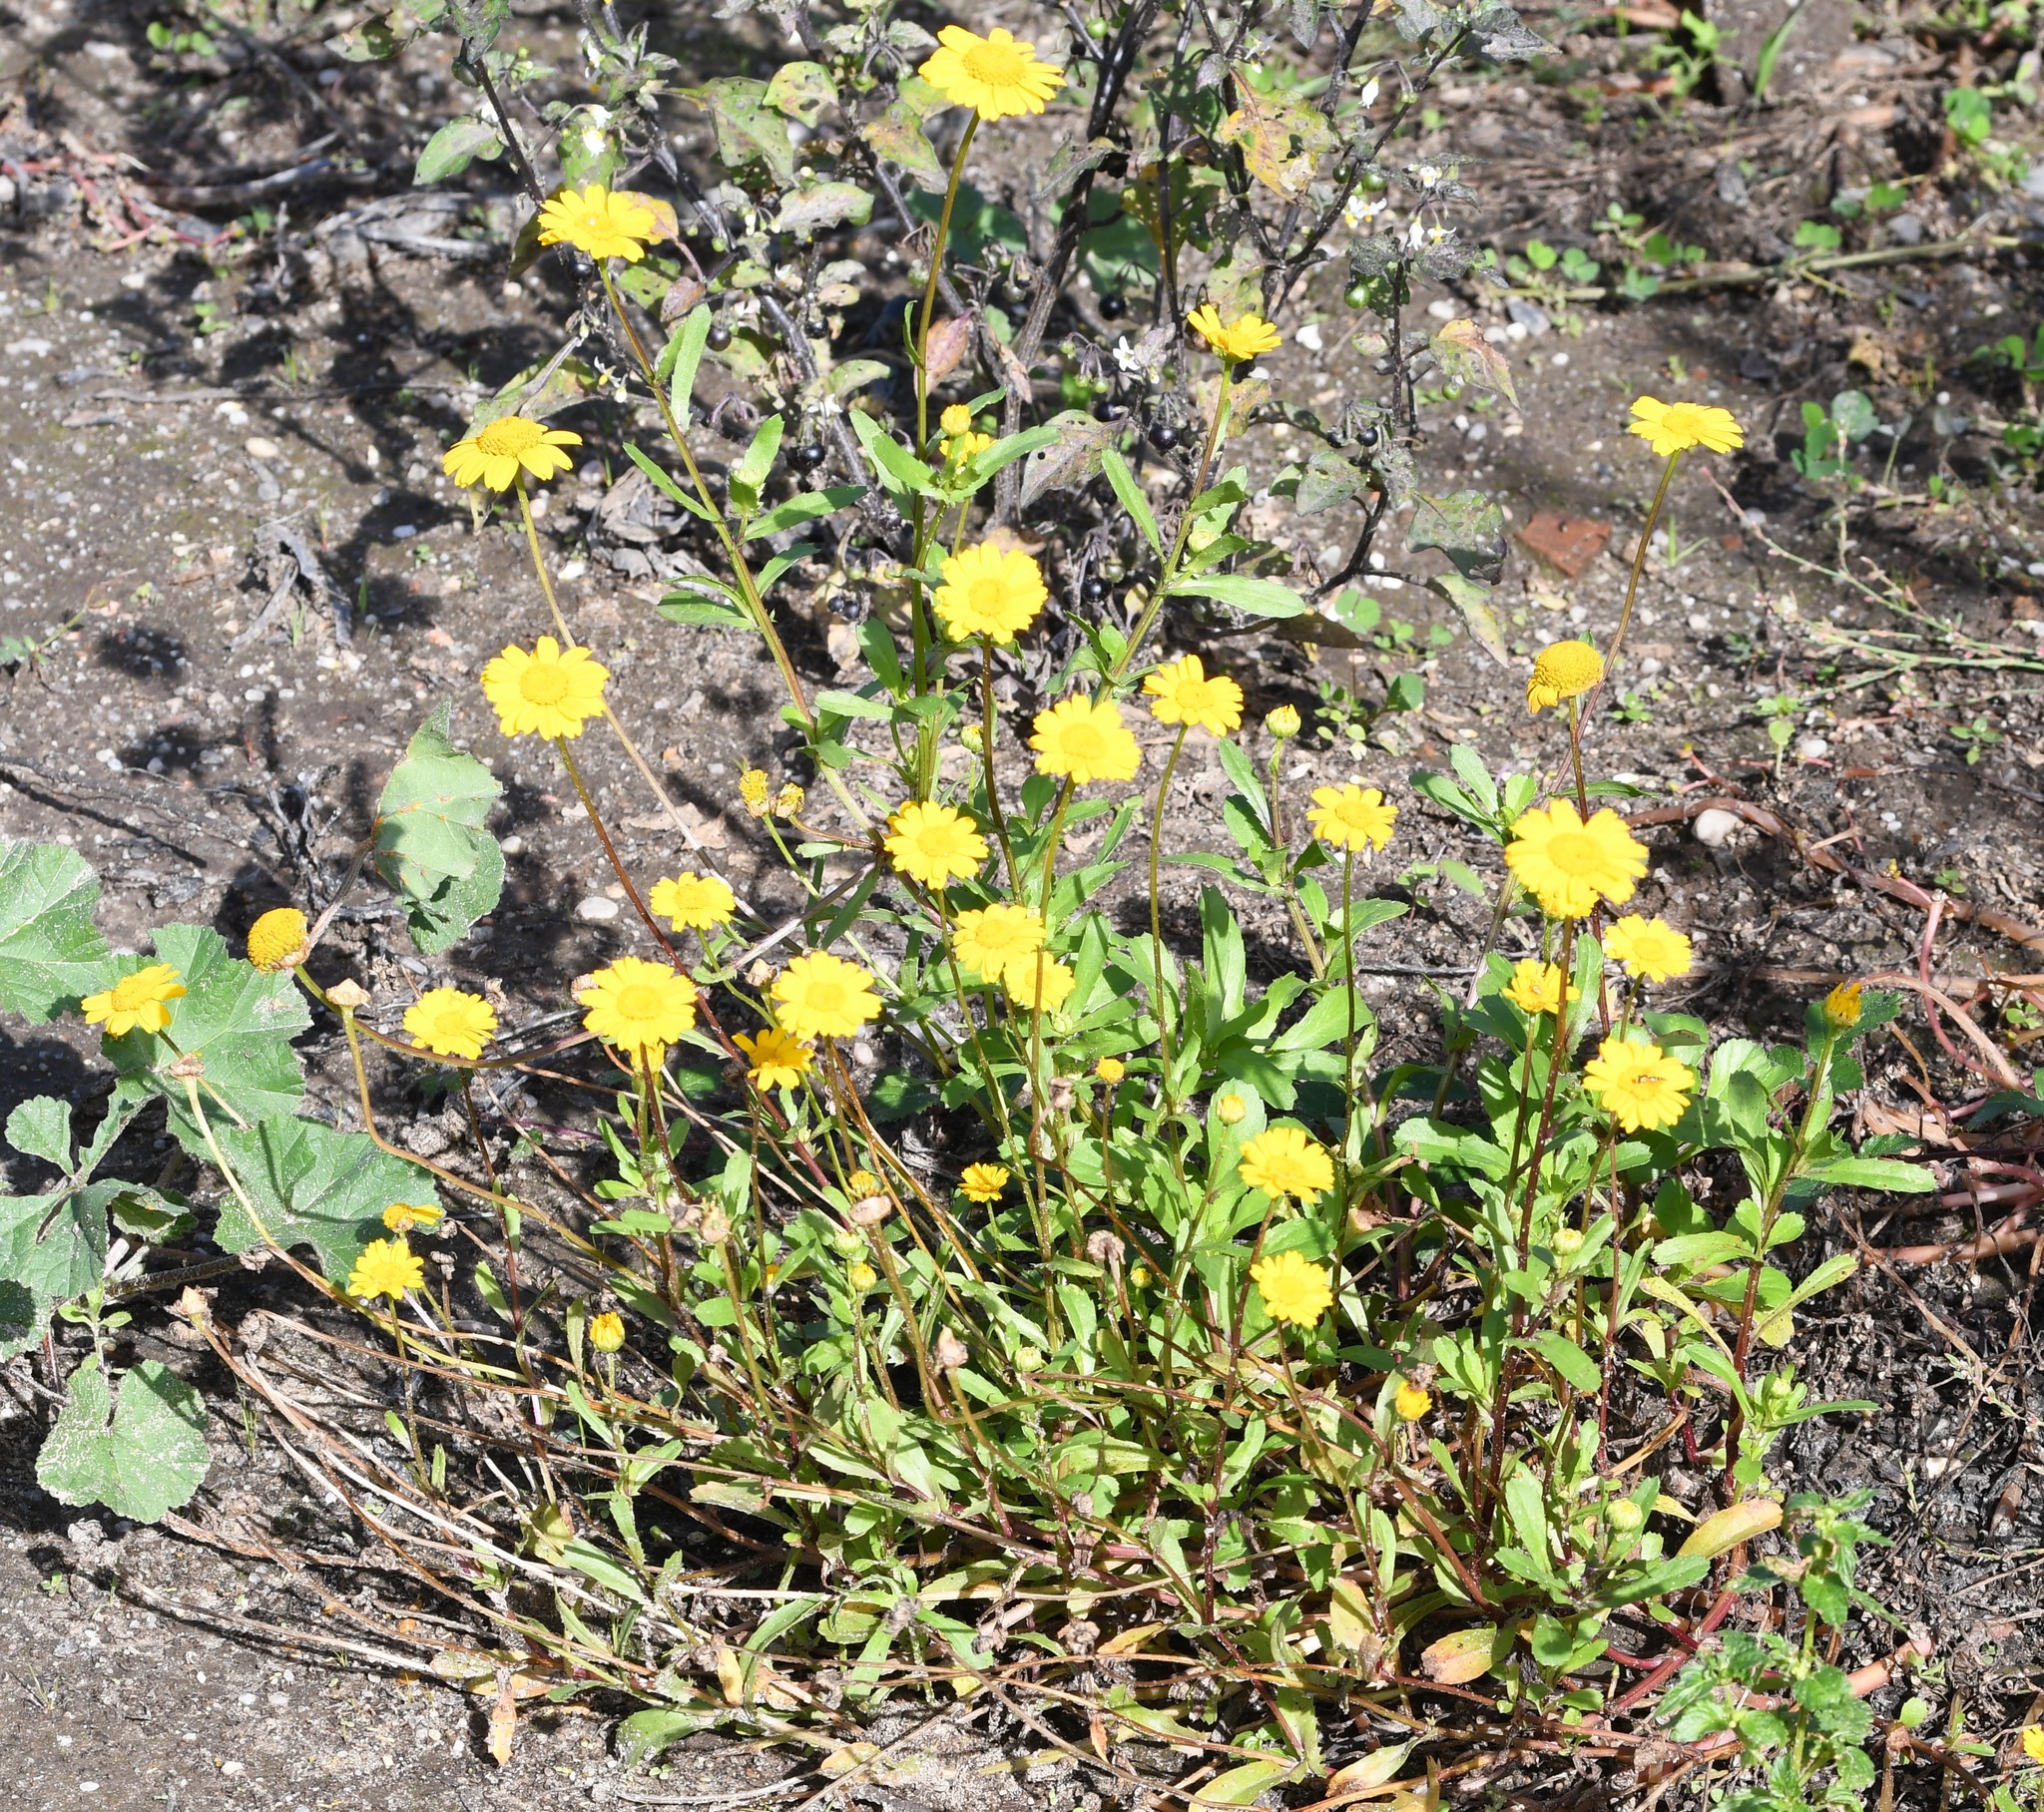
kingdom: Plantae
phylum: Tracheophyta
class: Magnoliopsida
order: Asterales
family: Asteraceae
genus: Coleostephus
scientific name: Coleostephus myconis
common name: Mediterranean marigold
